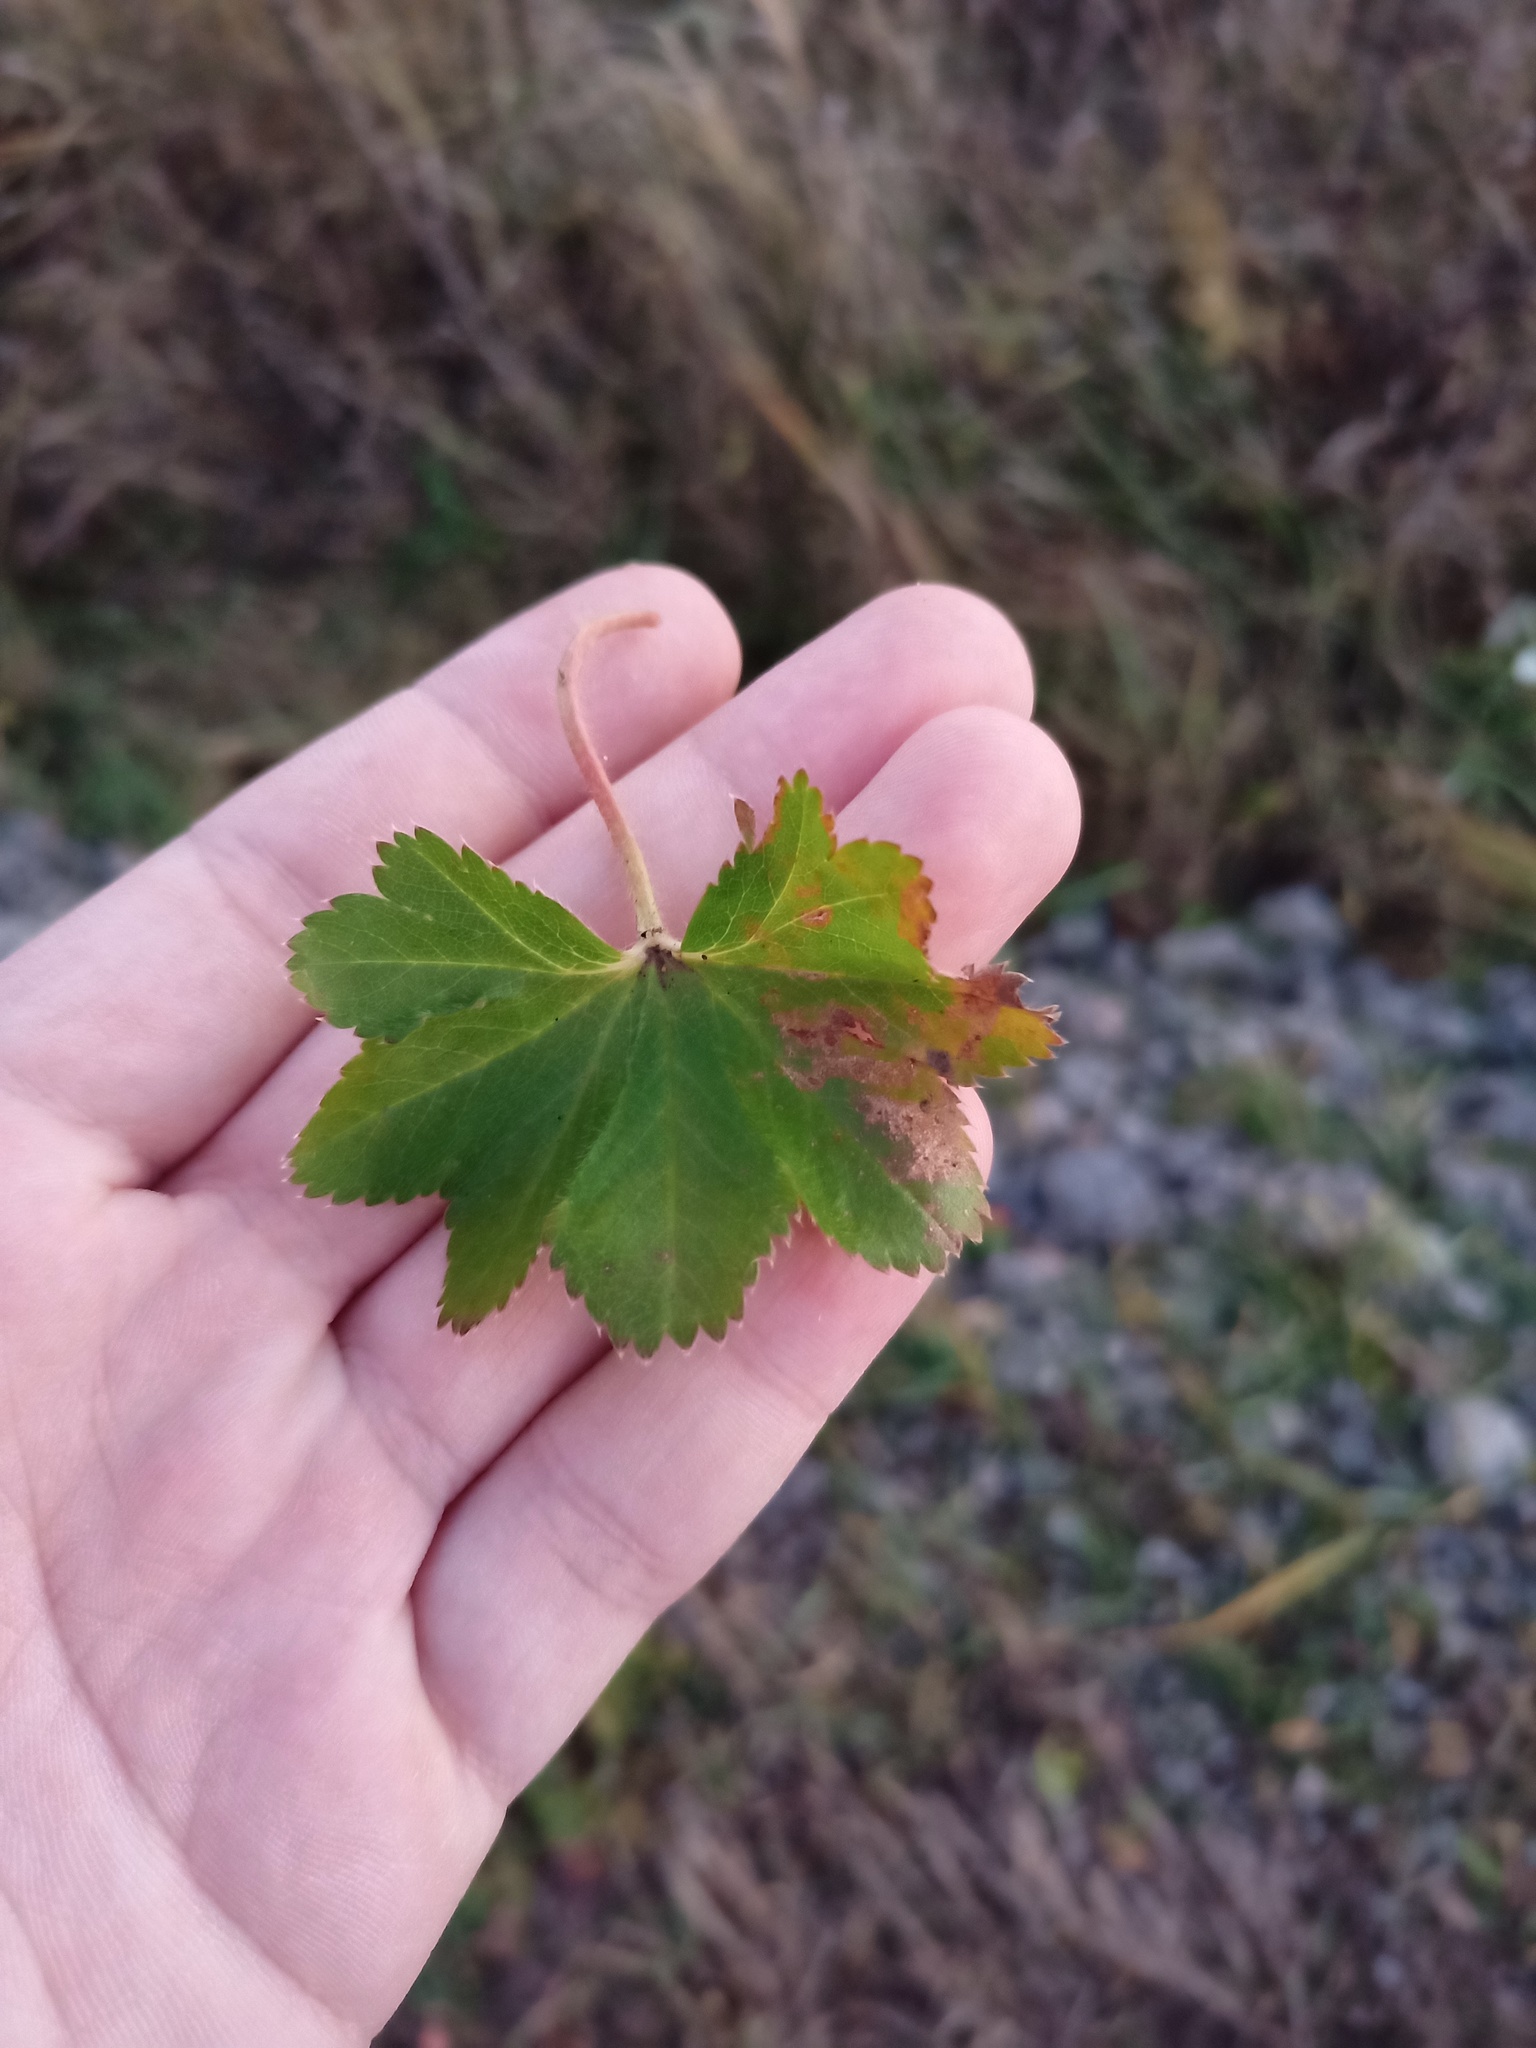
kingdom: Plantae
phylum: Tracheophyta
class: Magnoliopsida
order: Rosales
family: Rosaceae
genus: Alchemilla
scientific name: Alchemilla
